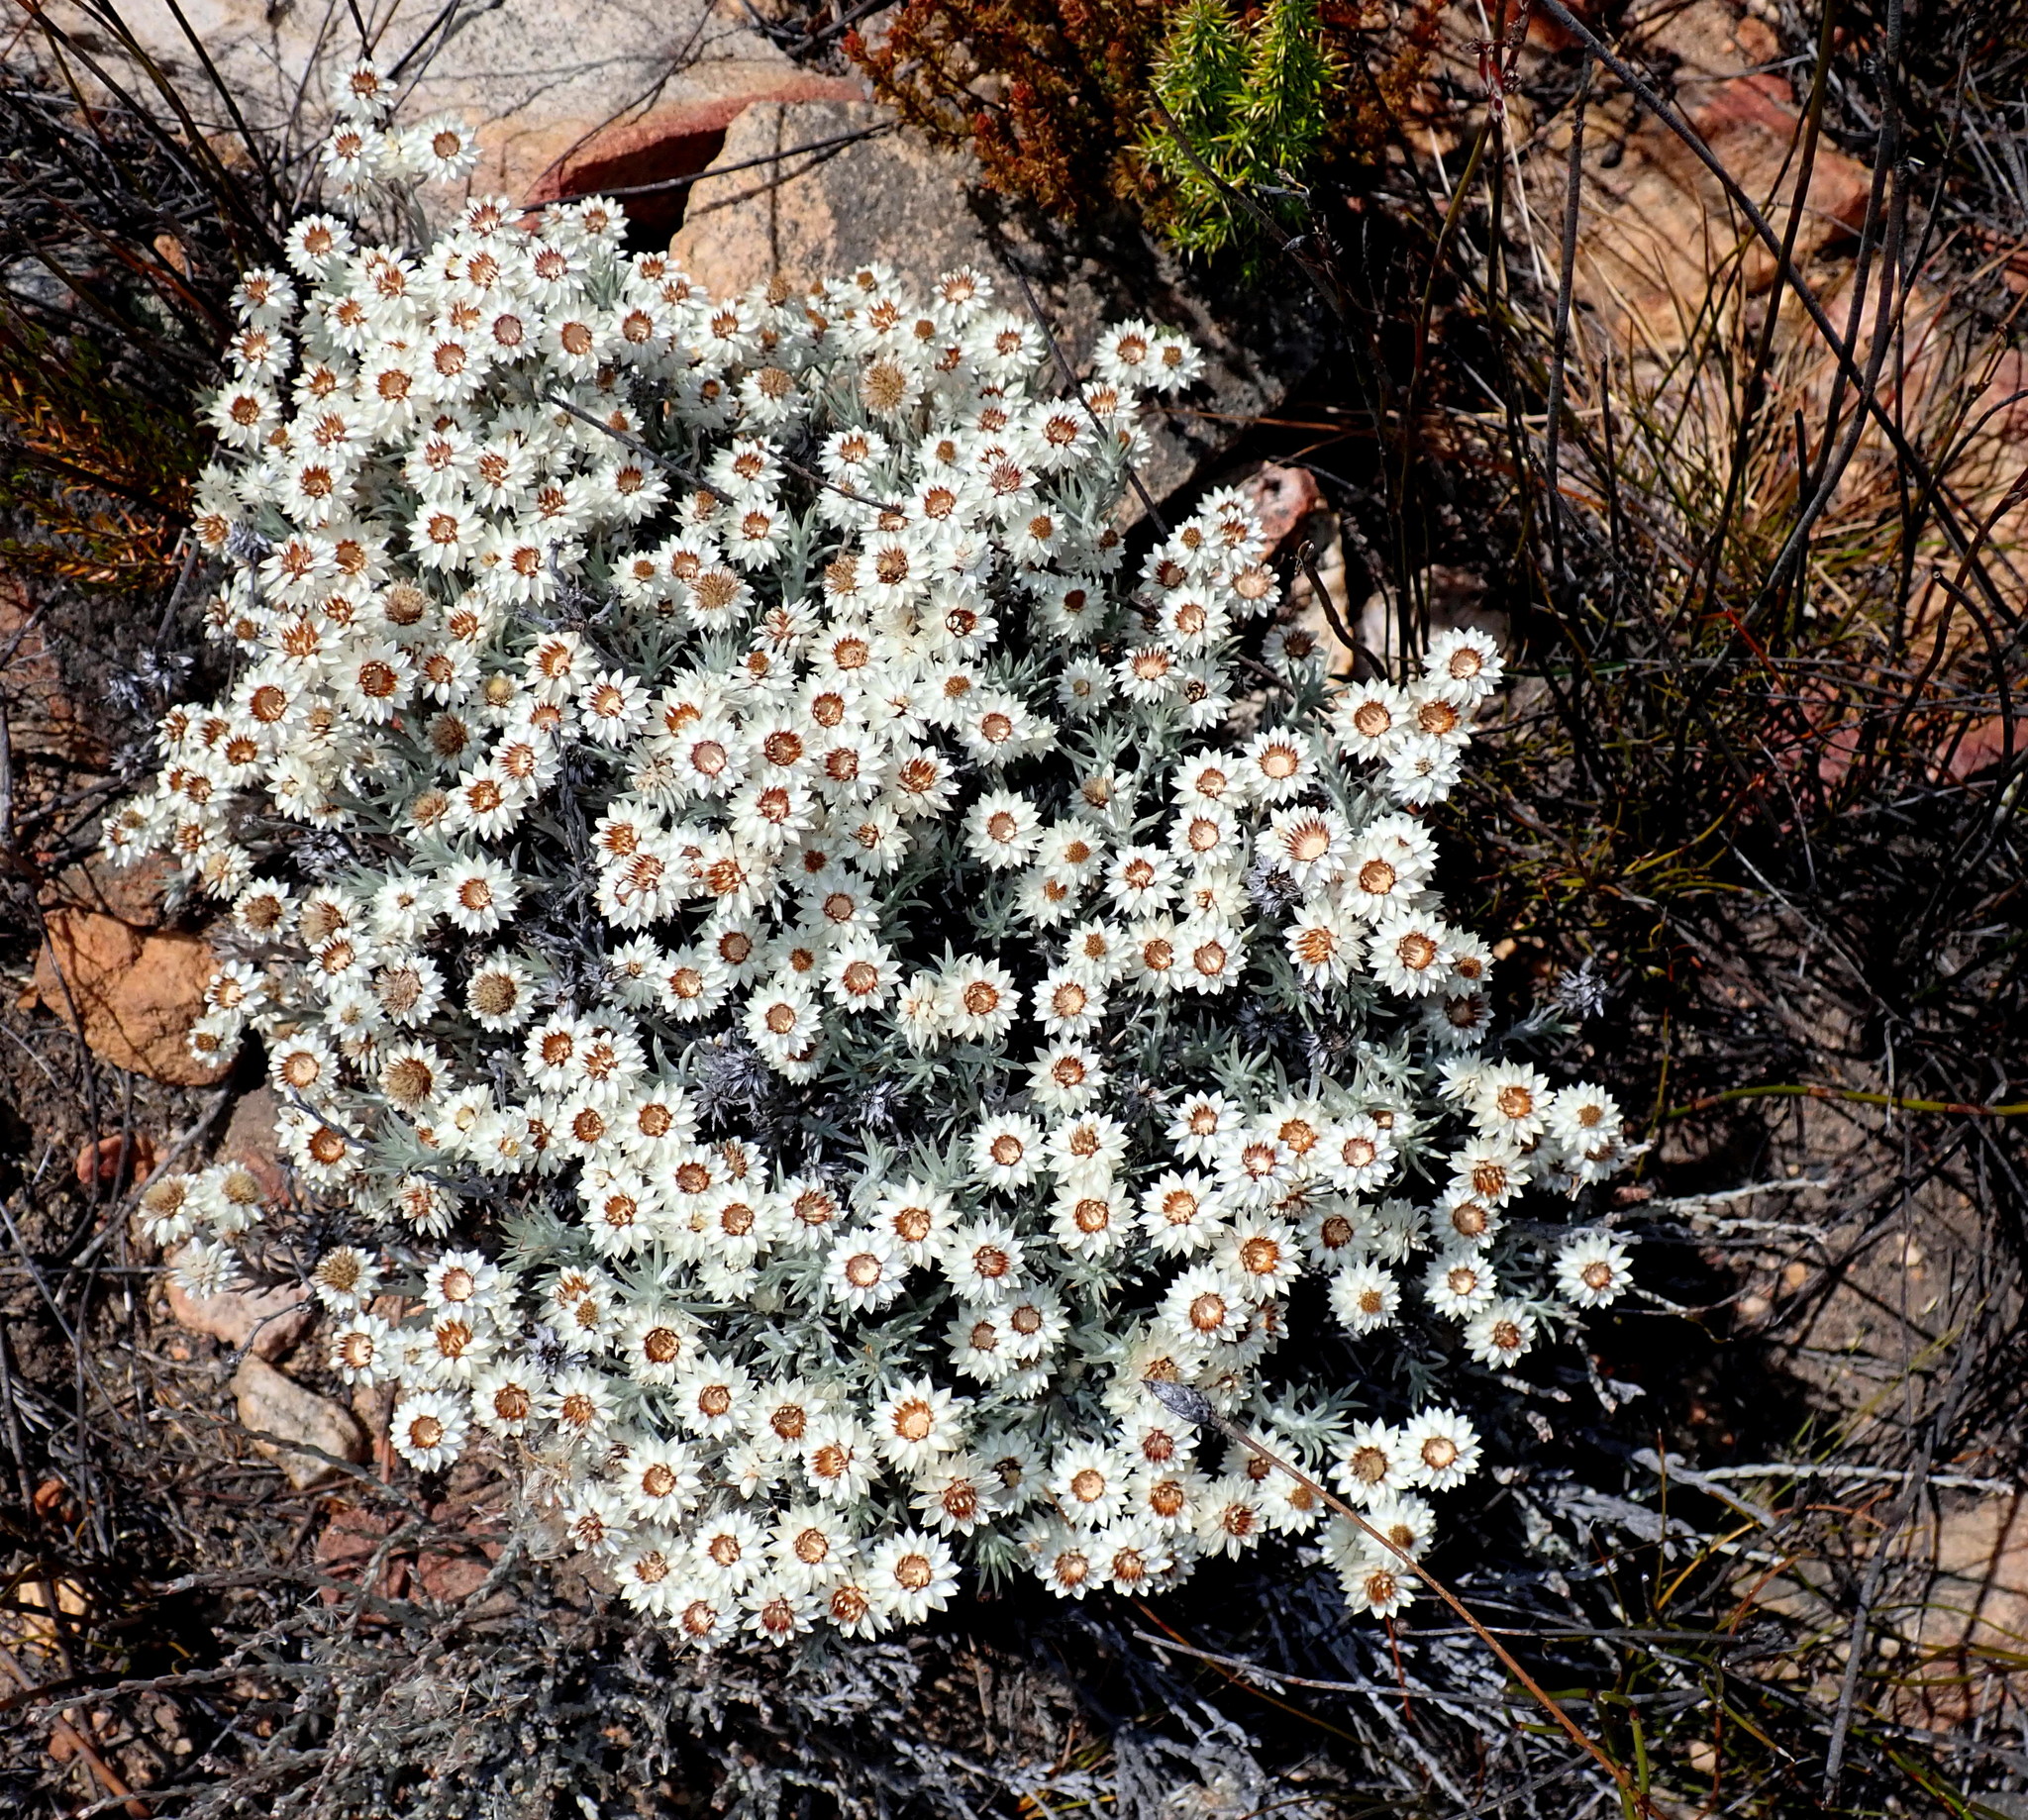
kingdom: Plantae
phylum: Tracheophyta
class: Magnoliopsida
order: Asterales
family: Asteraceae
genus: Achyranthemum
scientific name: Achyranthemum paniculatum
